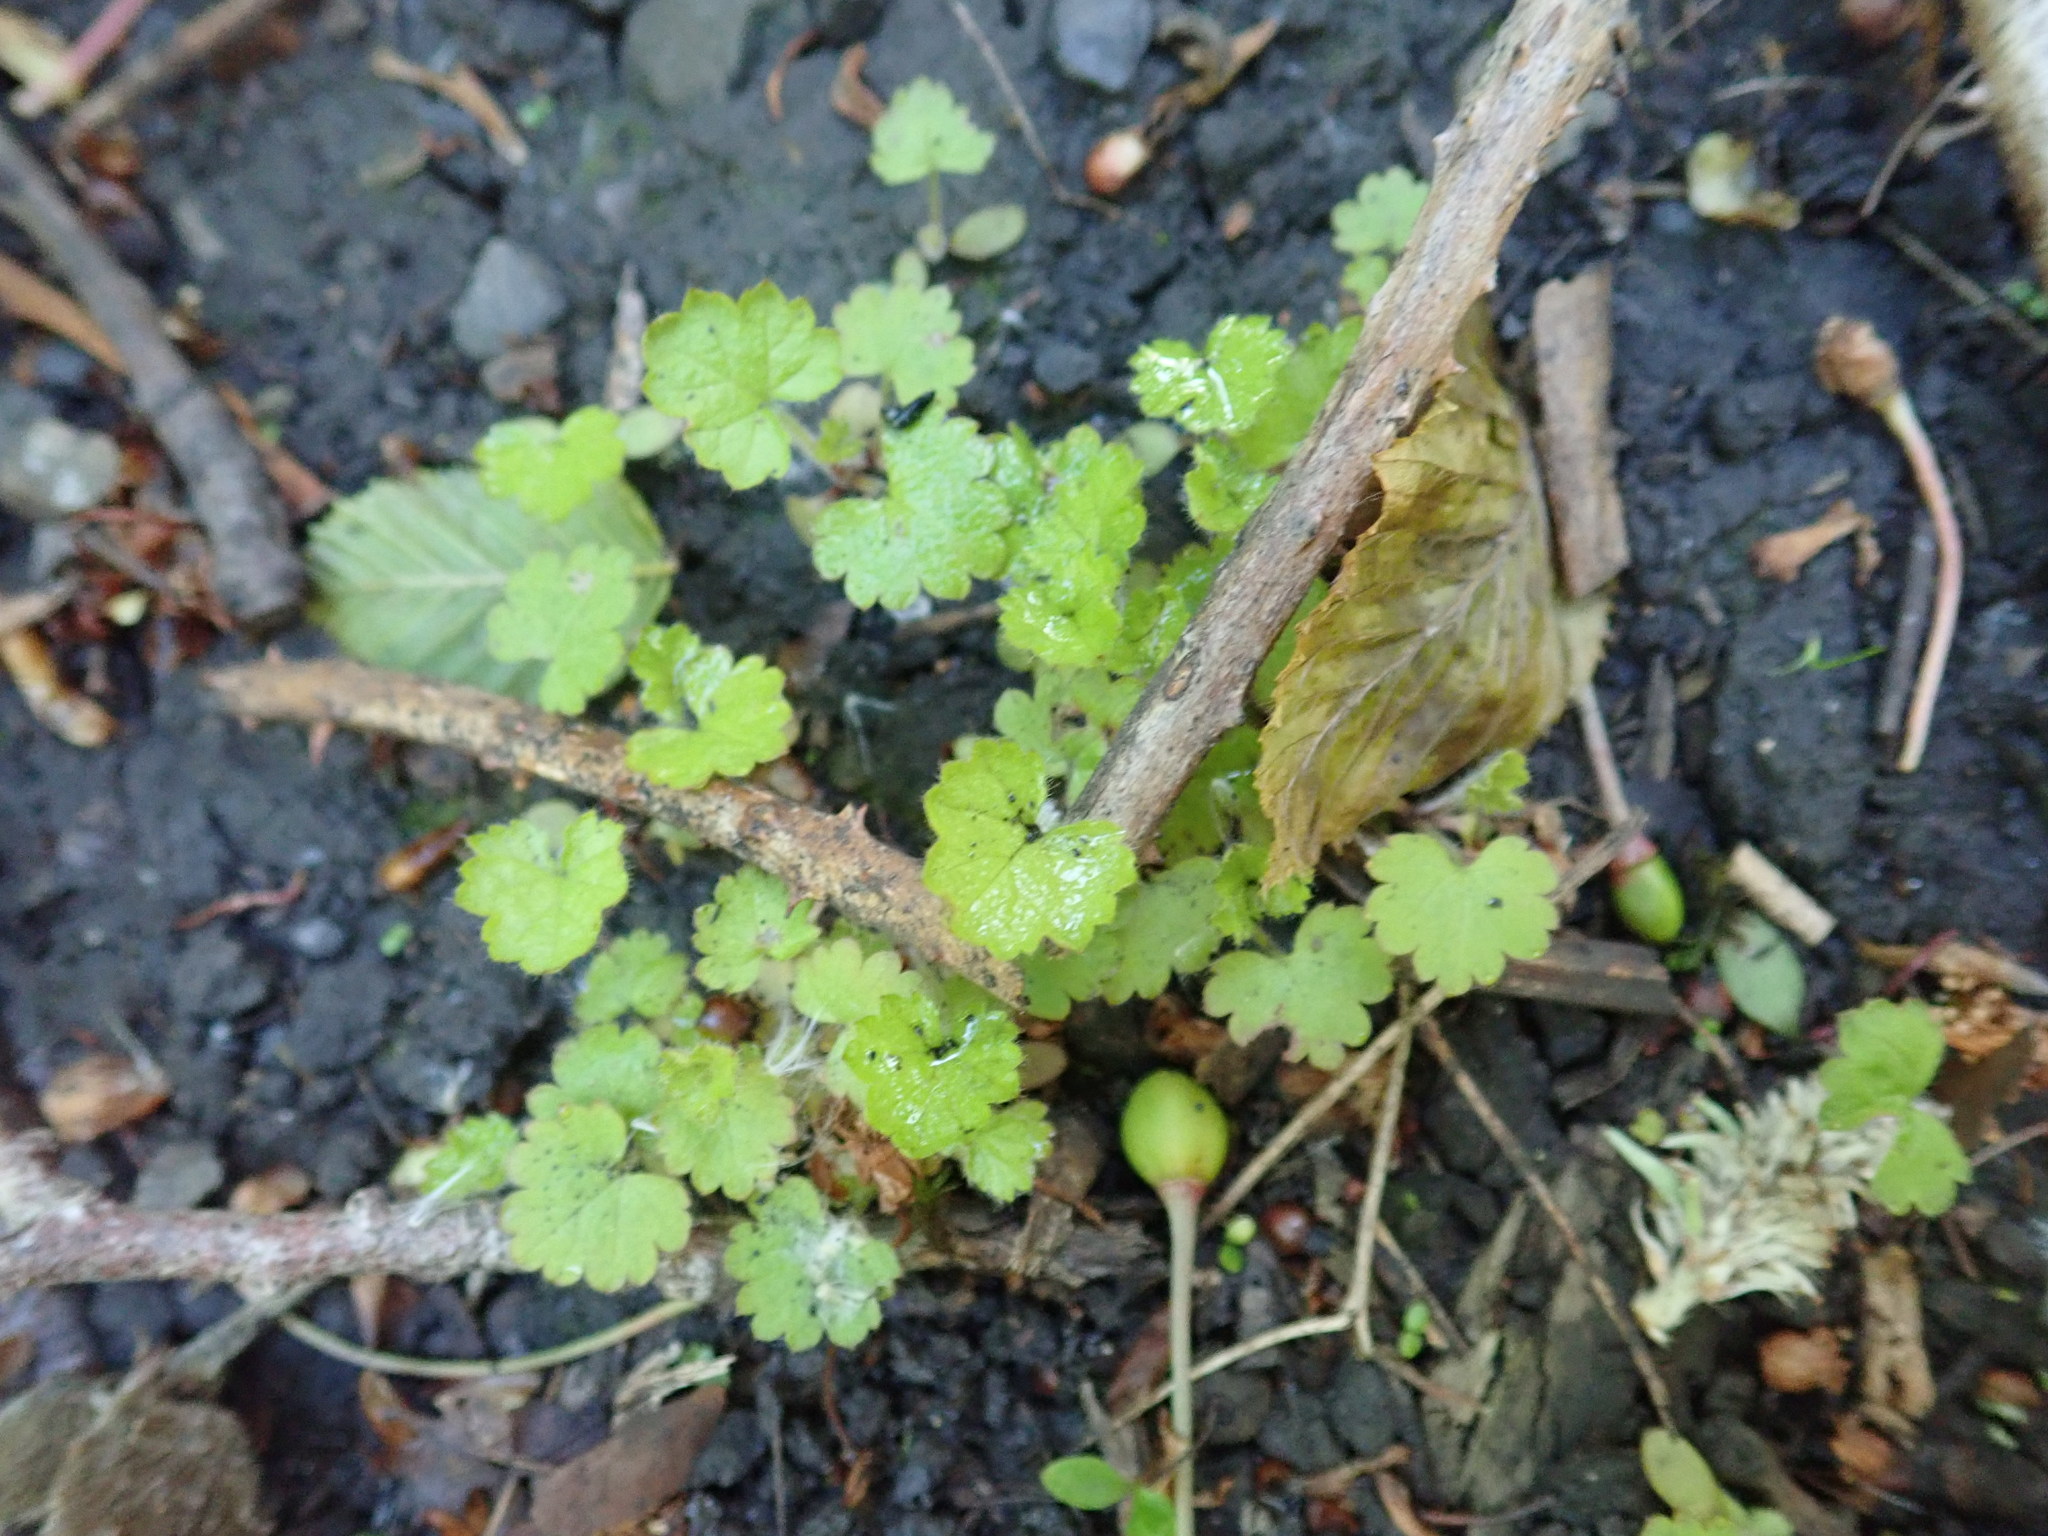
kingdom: Plantae
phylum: Tracheophyta
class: Magnoliopsida
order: Lamiales
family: Lamiaceae
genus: Glechoma
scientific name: Glechoma hederacea
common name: Ground ivy
